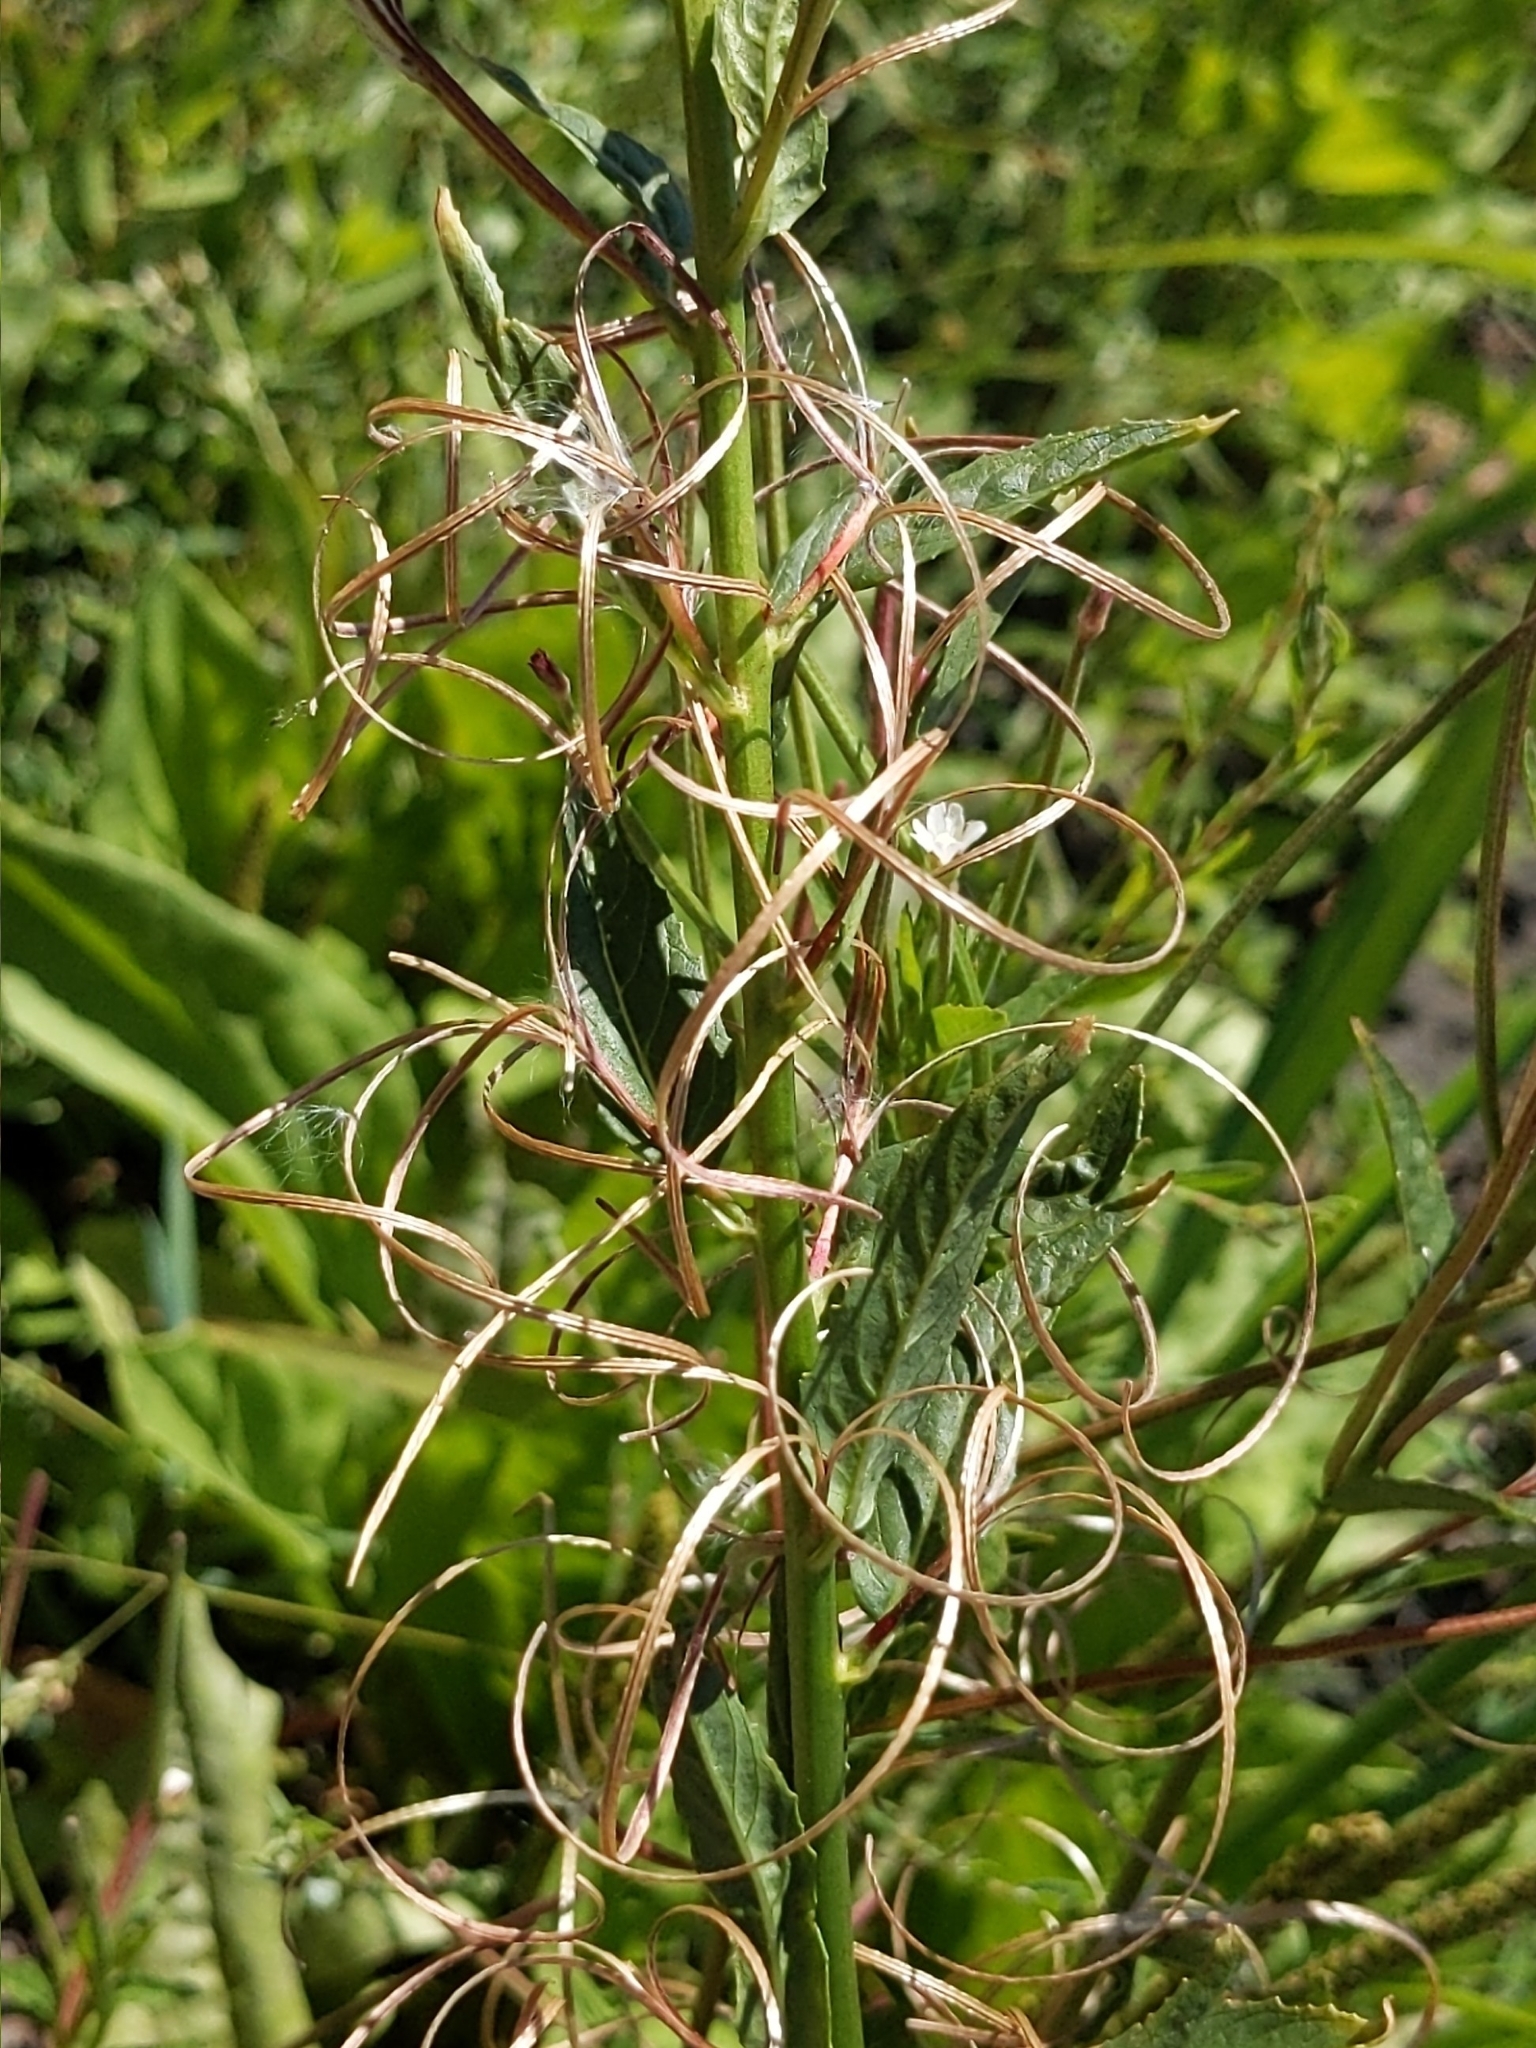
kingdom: Plantae
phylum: Tracheophyta
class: Magnoliopsida
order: Myrtales
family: Onagraceae
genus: Epilobium
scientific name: Epilobium ciliatum
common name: American willowherb
